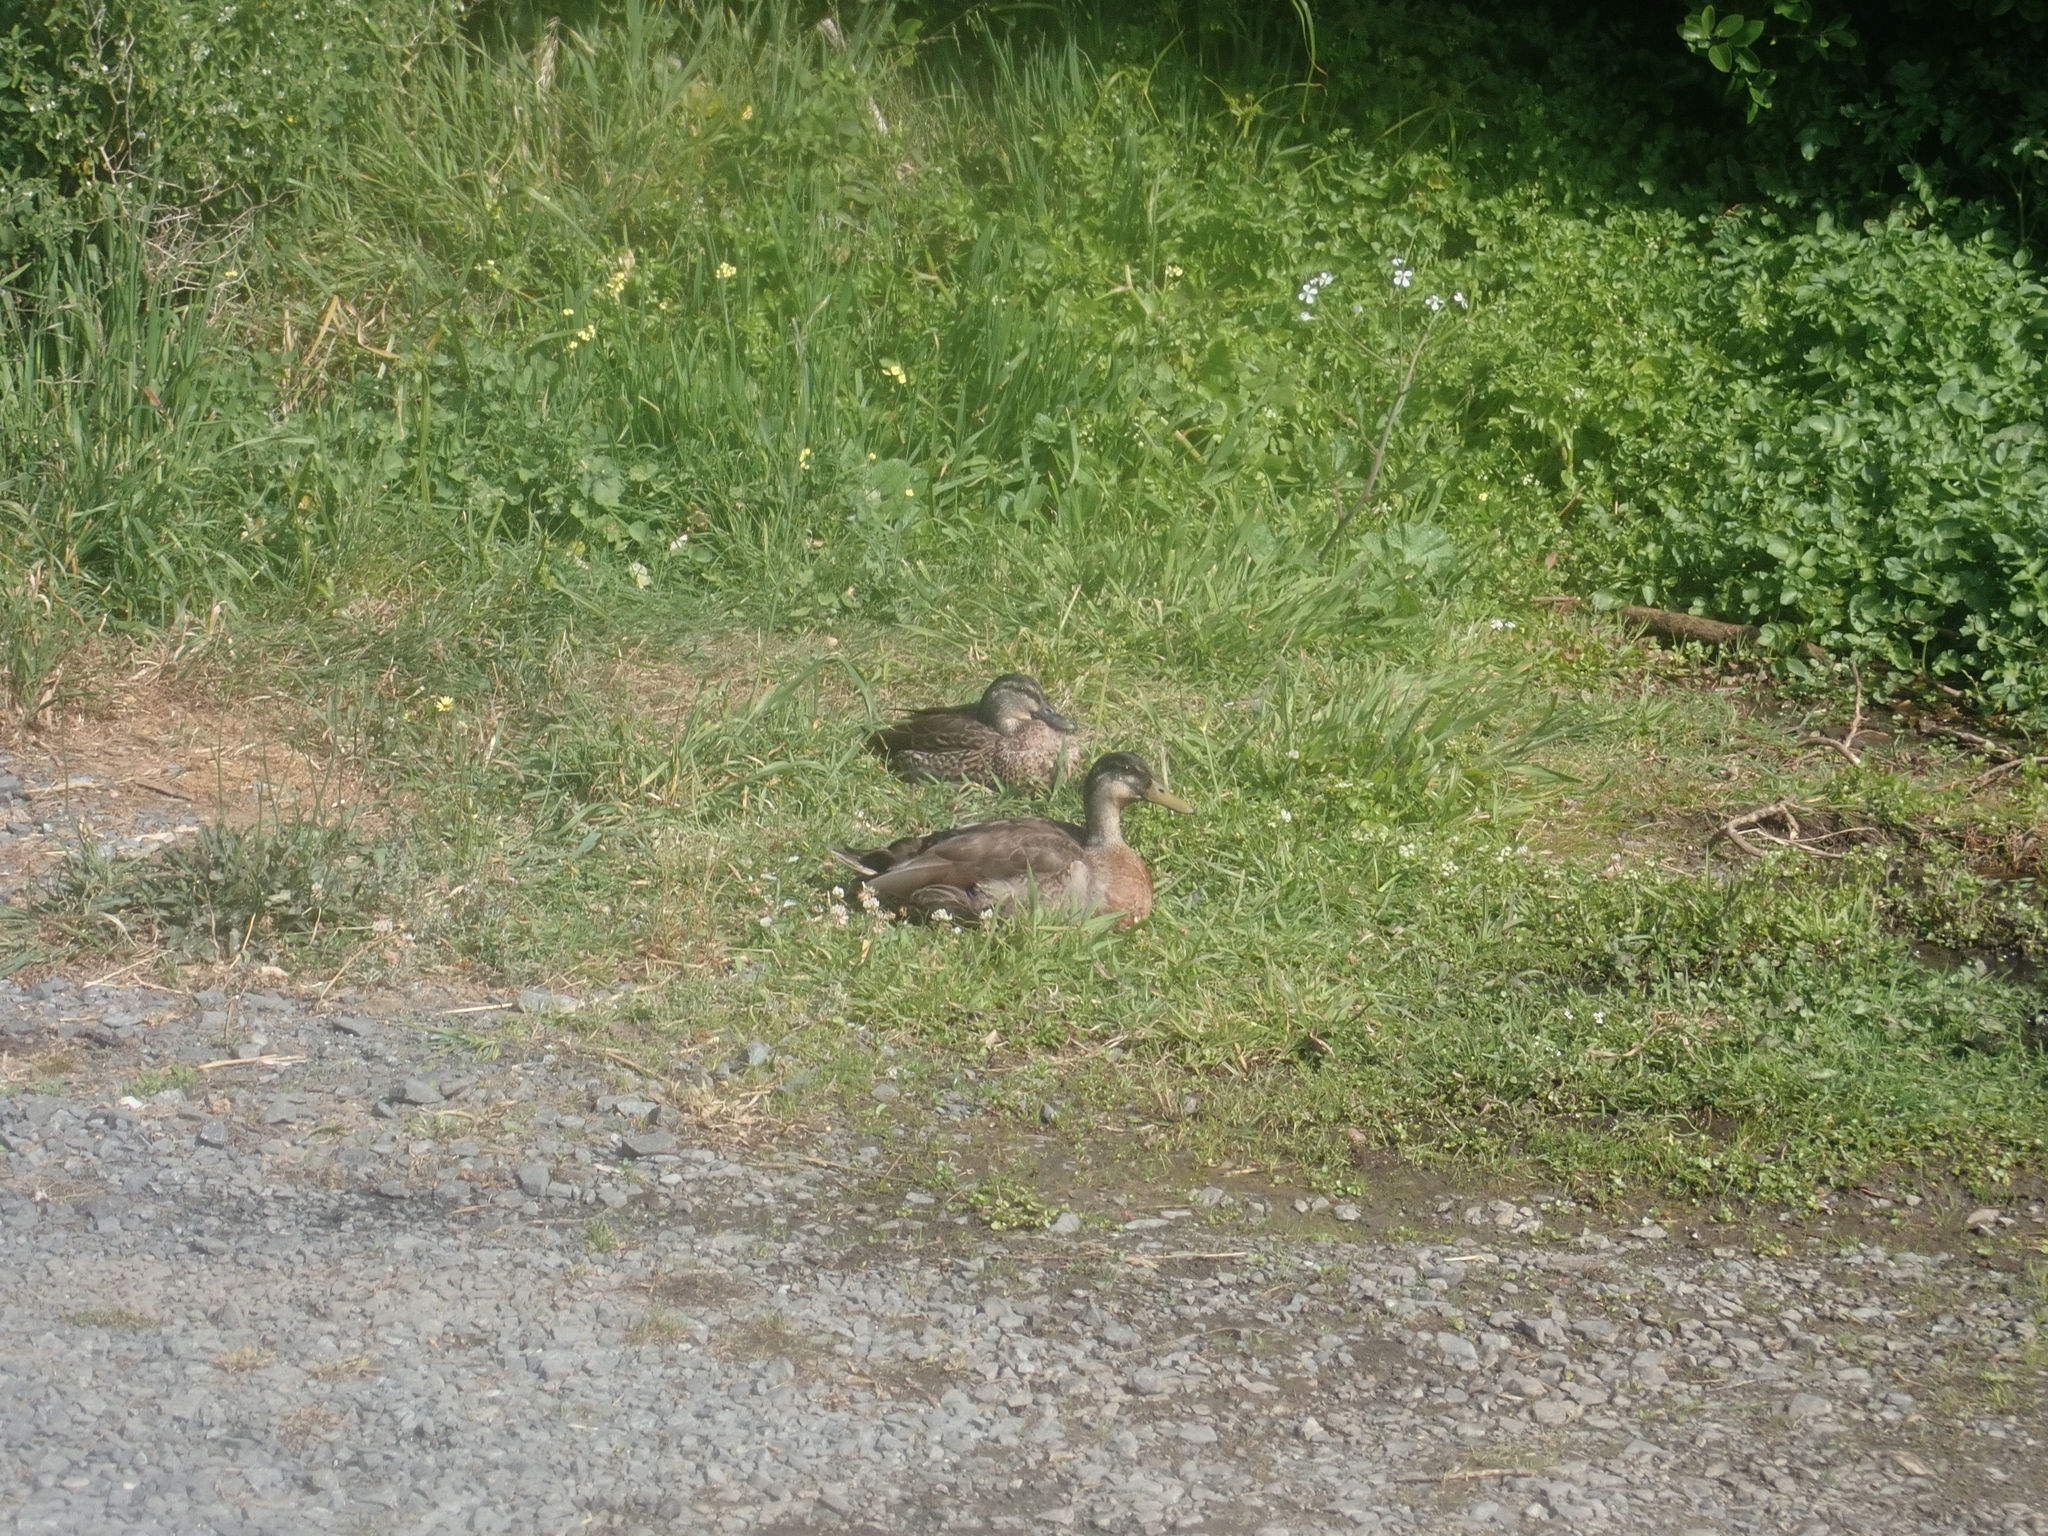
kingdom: Animalia
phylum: Chordata
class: Aves
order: Anseriformes
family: Anatidae
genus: Anas
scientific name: Anas
